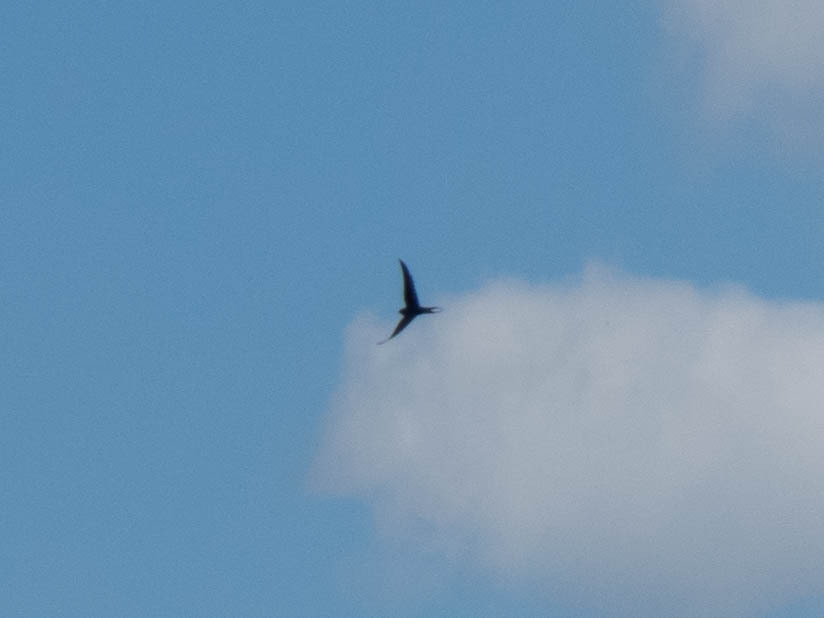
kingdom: Animalia
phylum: Chordata
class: Aves
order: Passeriformes
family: Hirundinidae
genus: Hirundo
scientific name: Hirundo rustica
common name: Barn swallow
